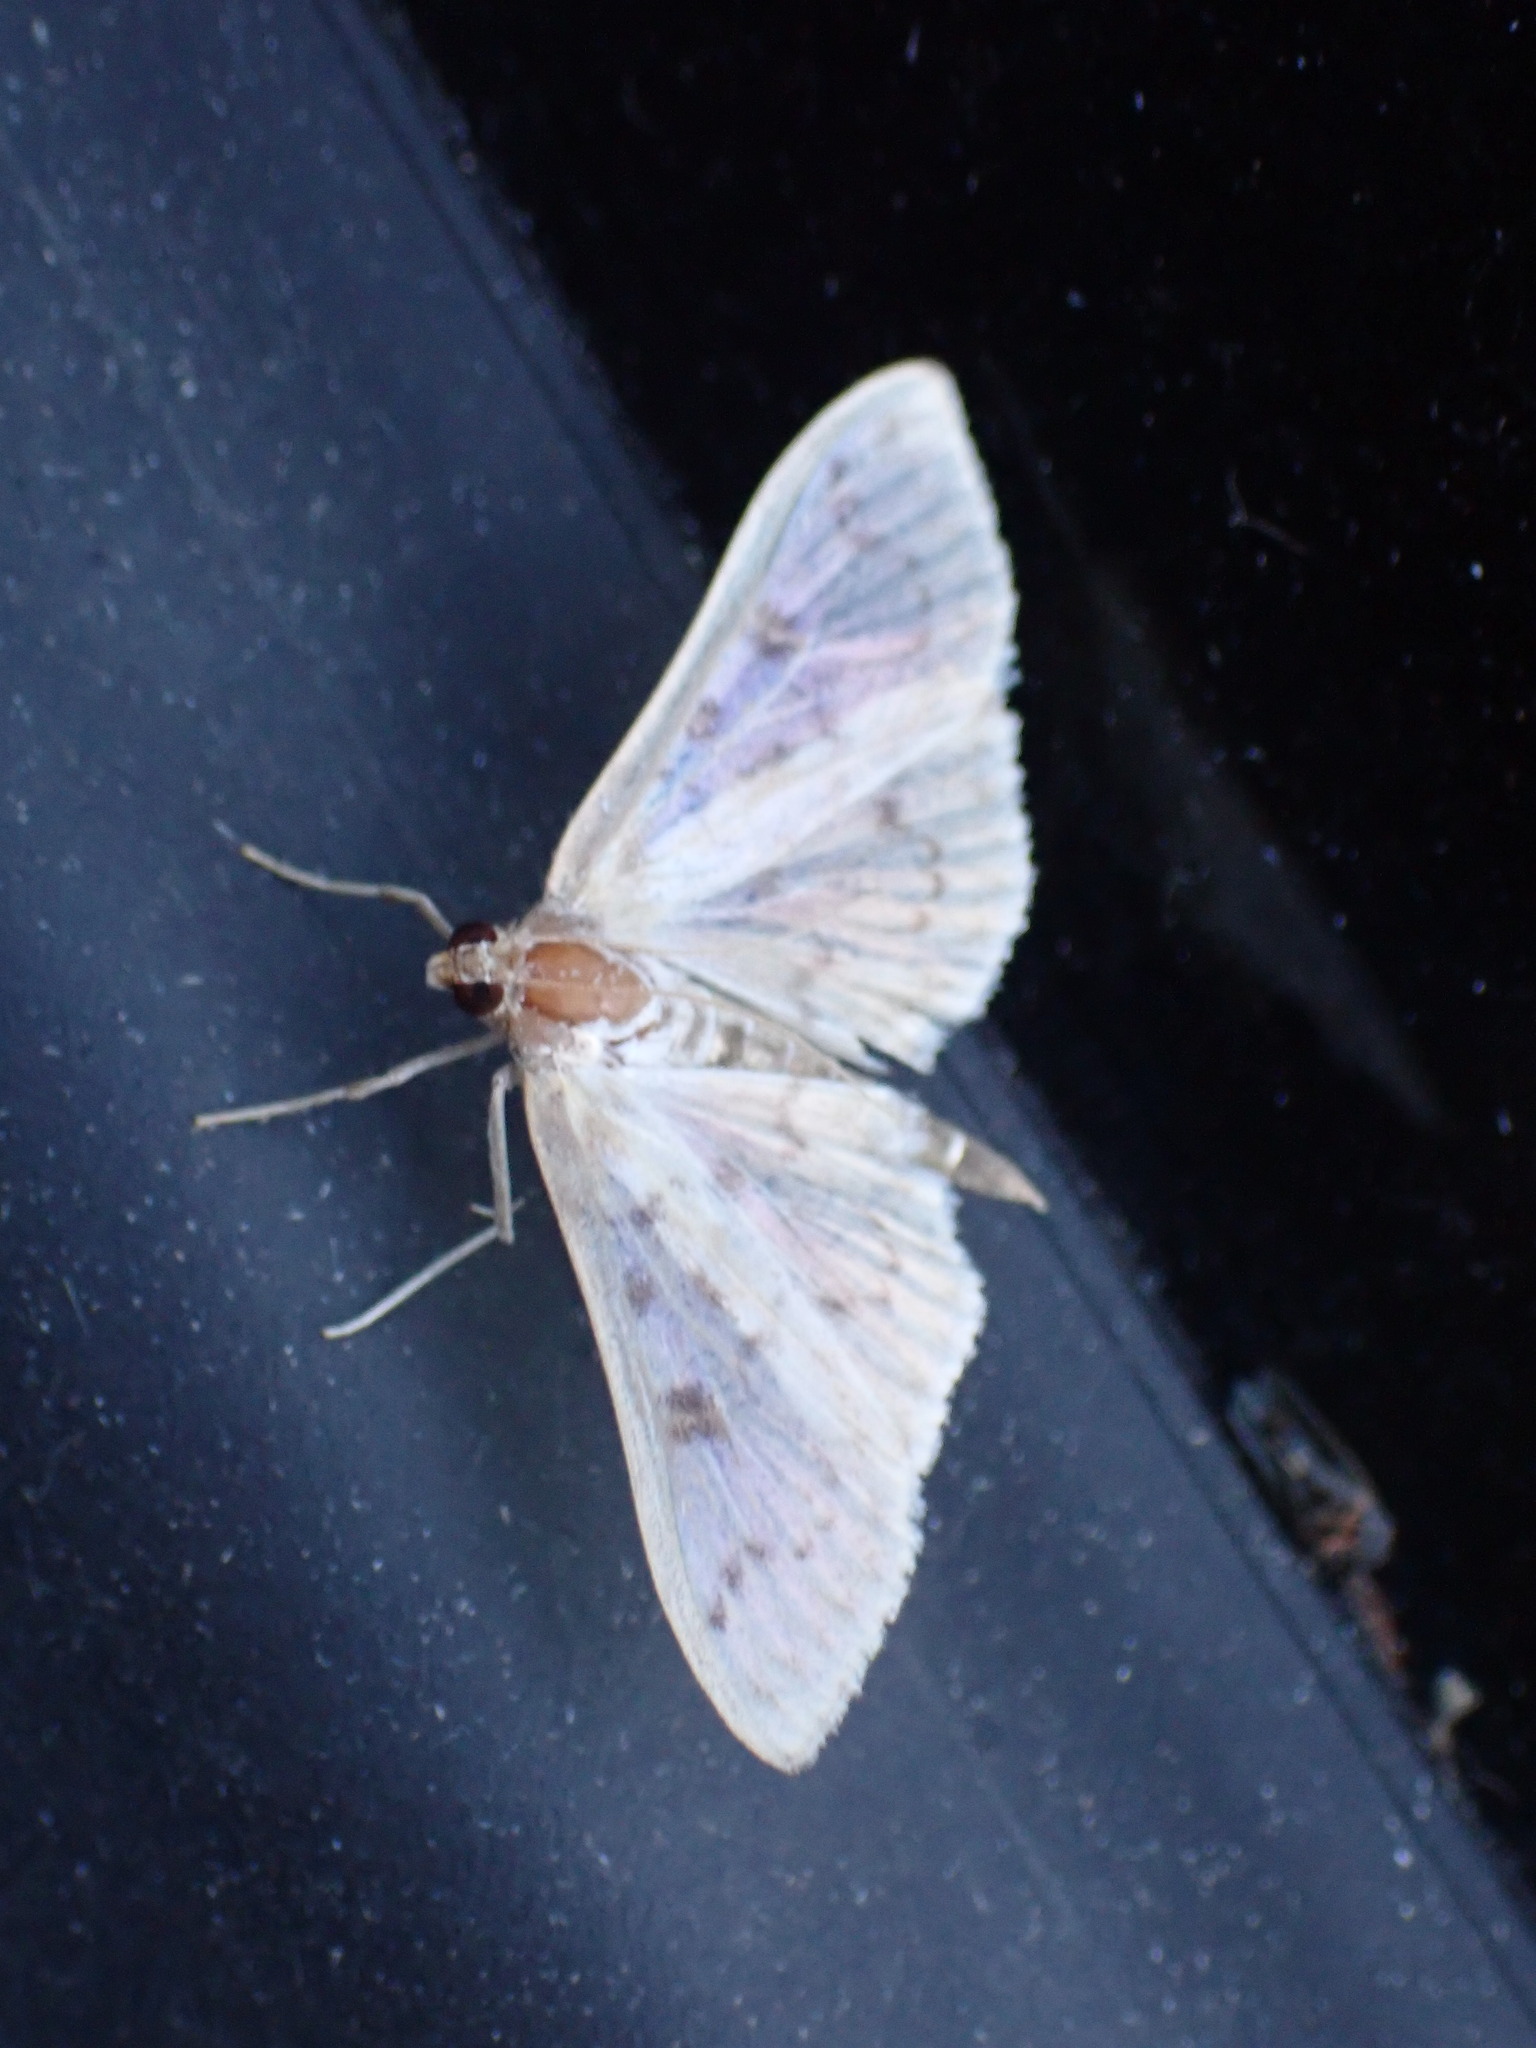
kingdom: Animalia
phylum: Arthropoda
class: Insecta
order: Lepidoptera
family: Crambidae
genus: Herpetogramma
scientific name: Herpetogramma aquilonalis
